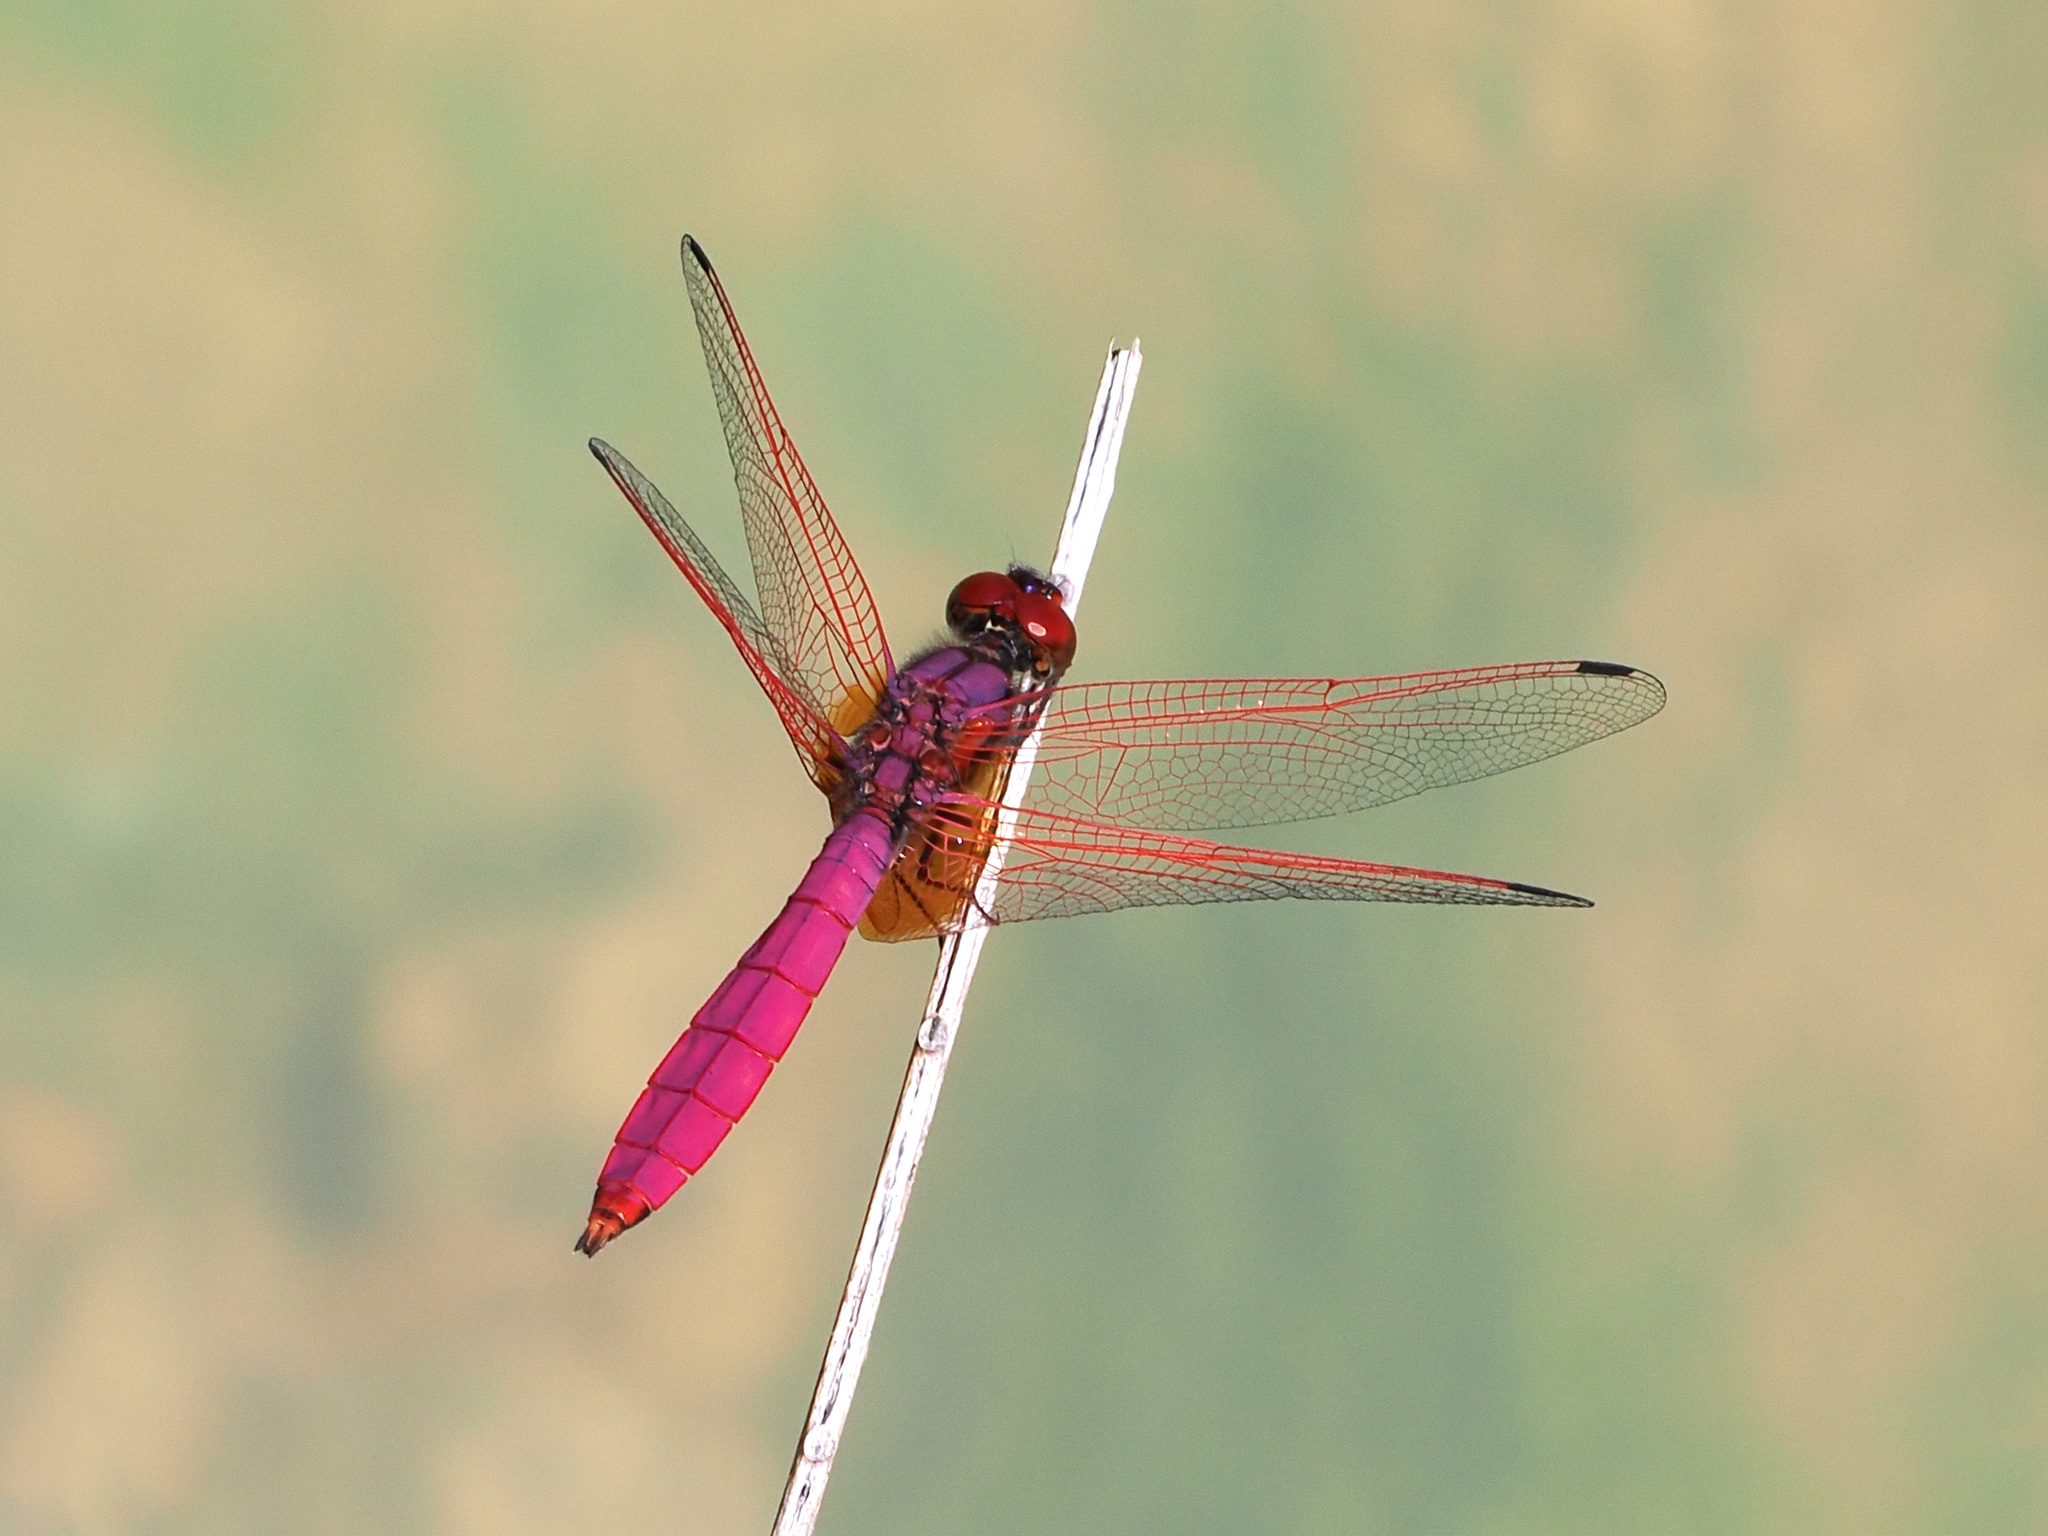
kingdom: Animalia
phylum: Arthropoda
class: Insecta
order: Odonata
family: Libellulidae
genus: Trithemis
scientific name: Trithemis aurora
